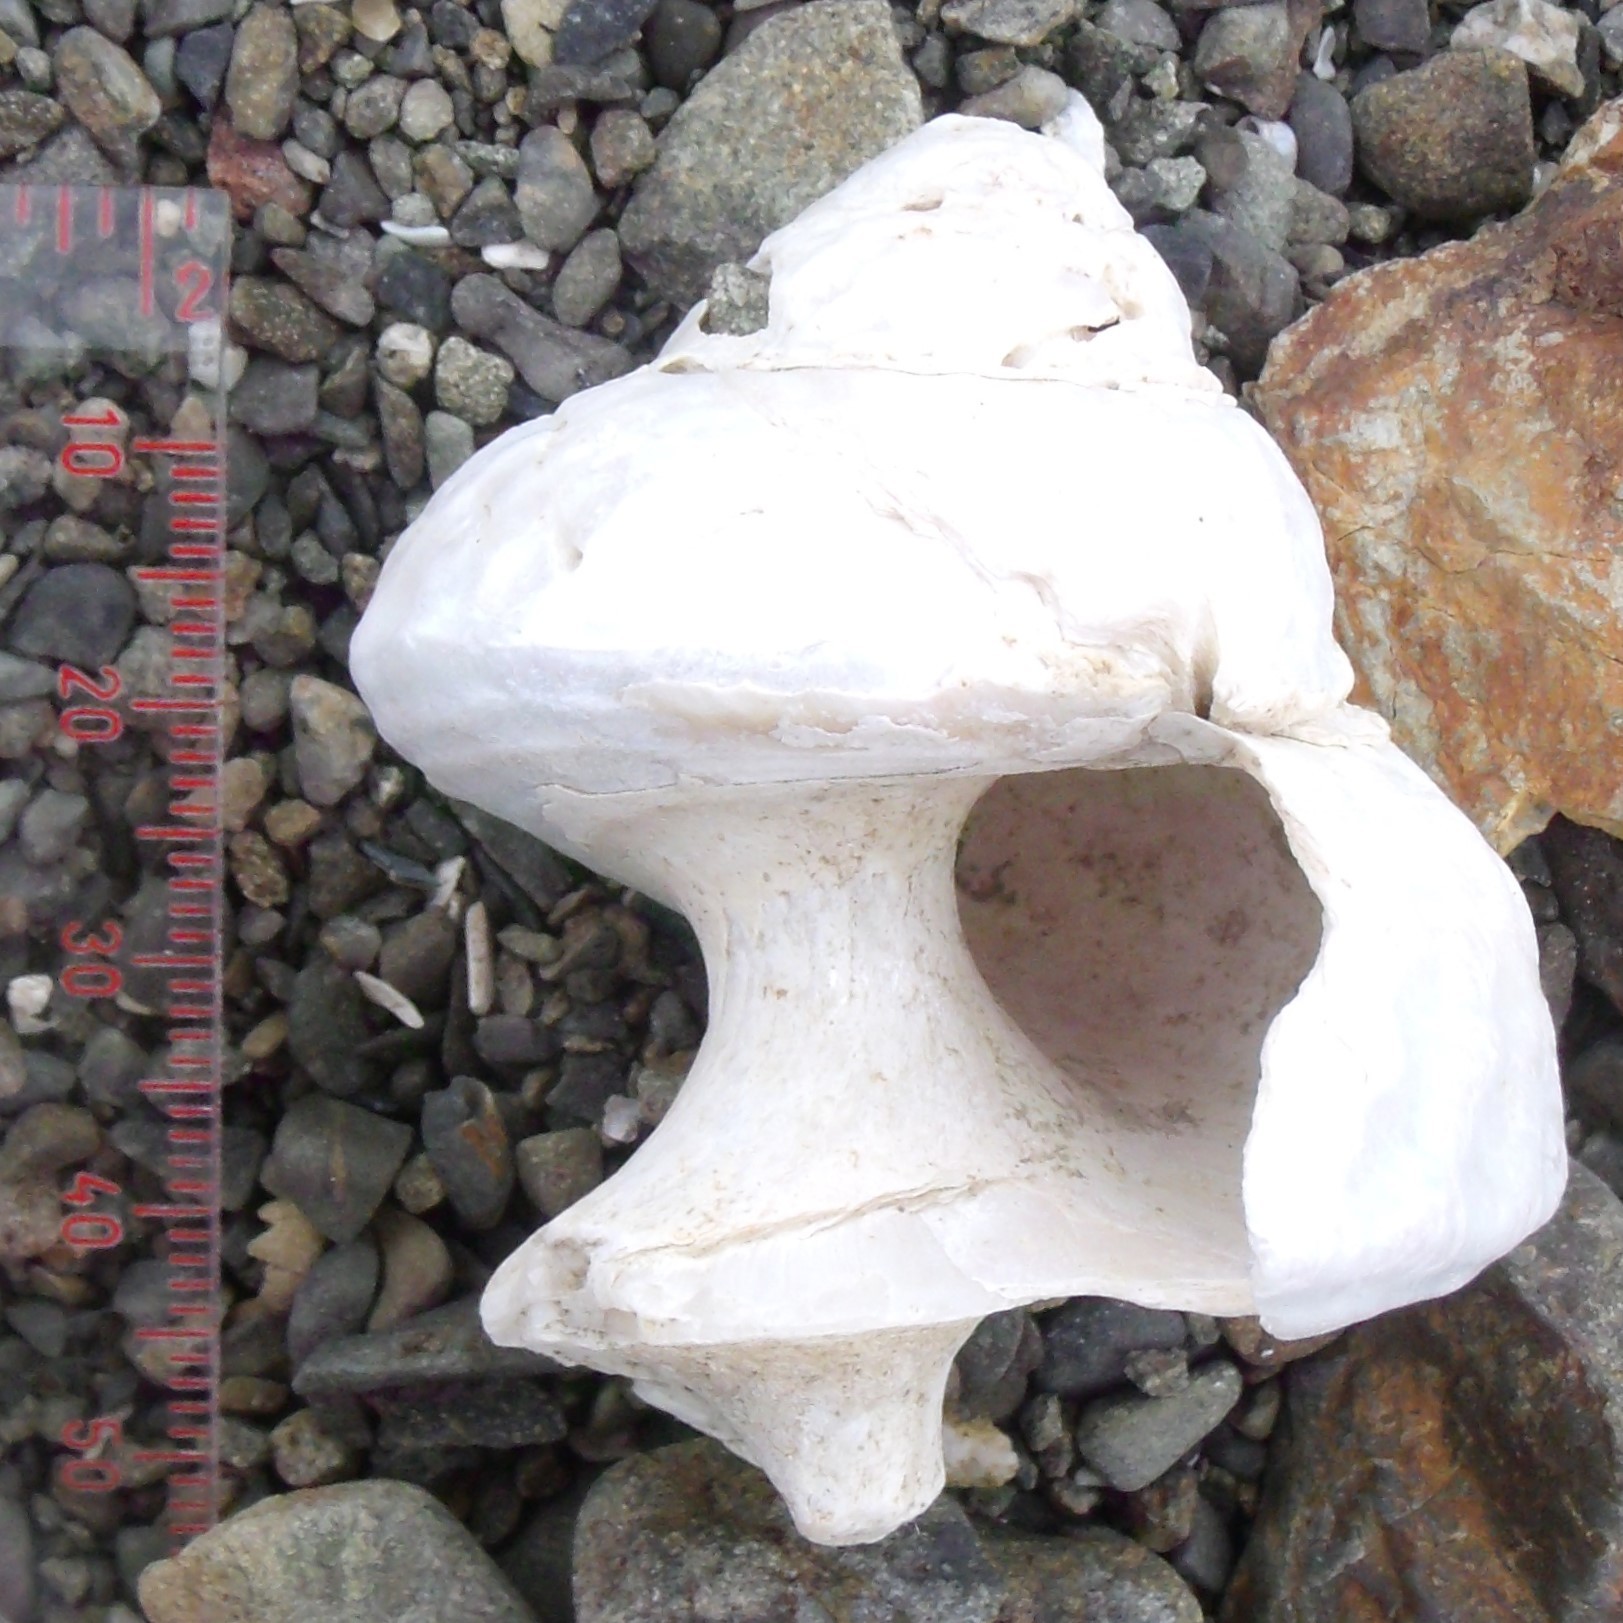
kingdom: Animalia
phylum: Mollusca
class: Gastropoda
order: Trochida
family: Turbinidae
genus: Cookia
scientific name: Cookia sulcata
